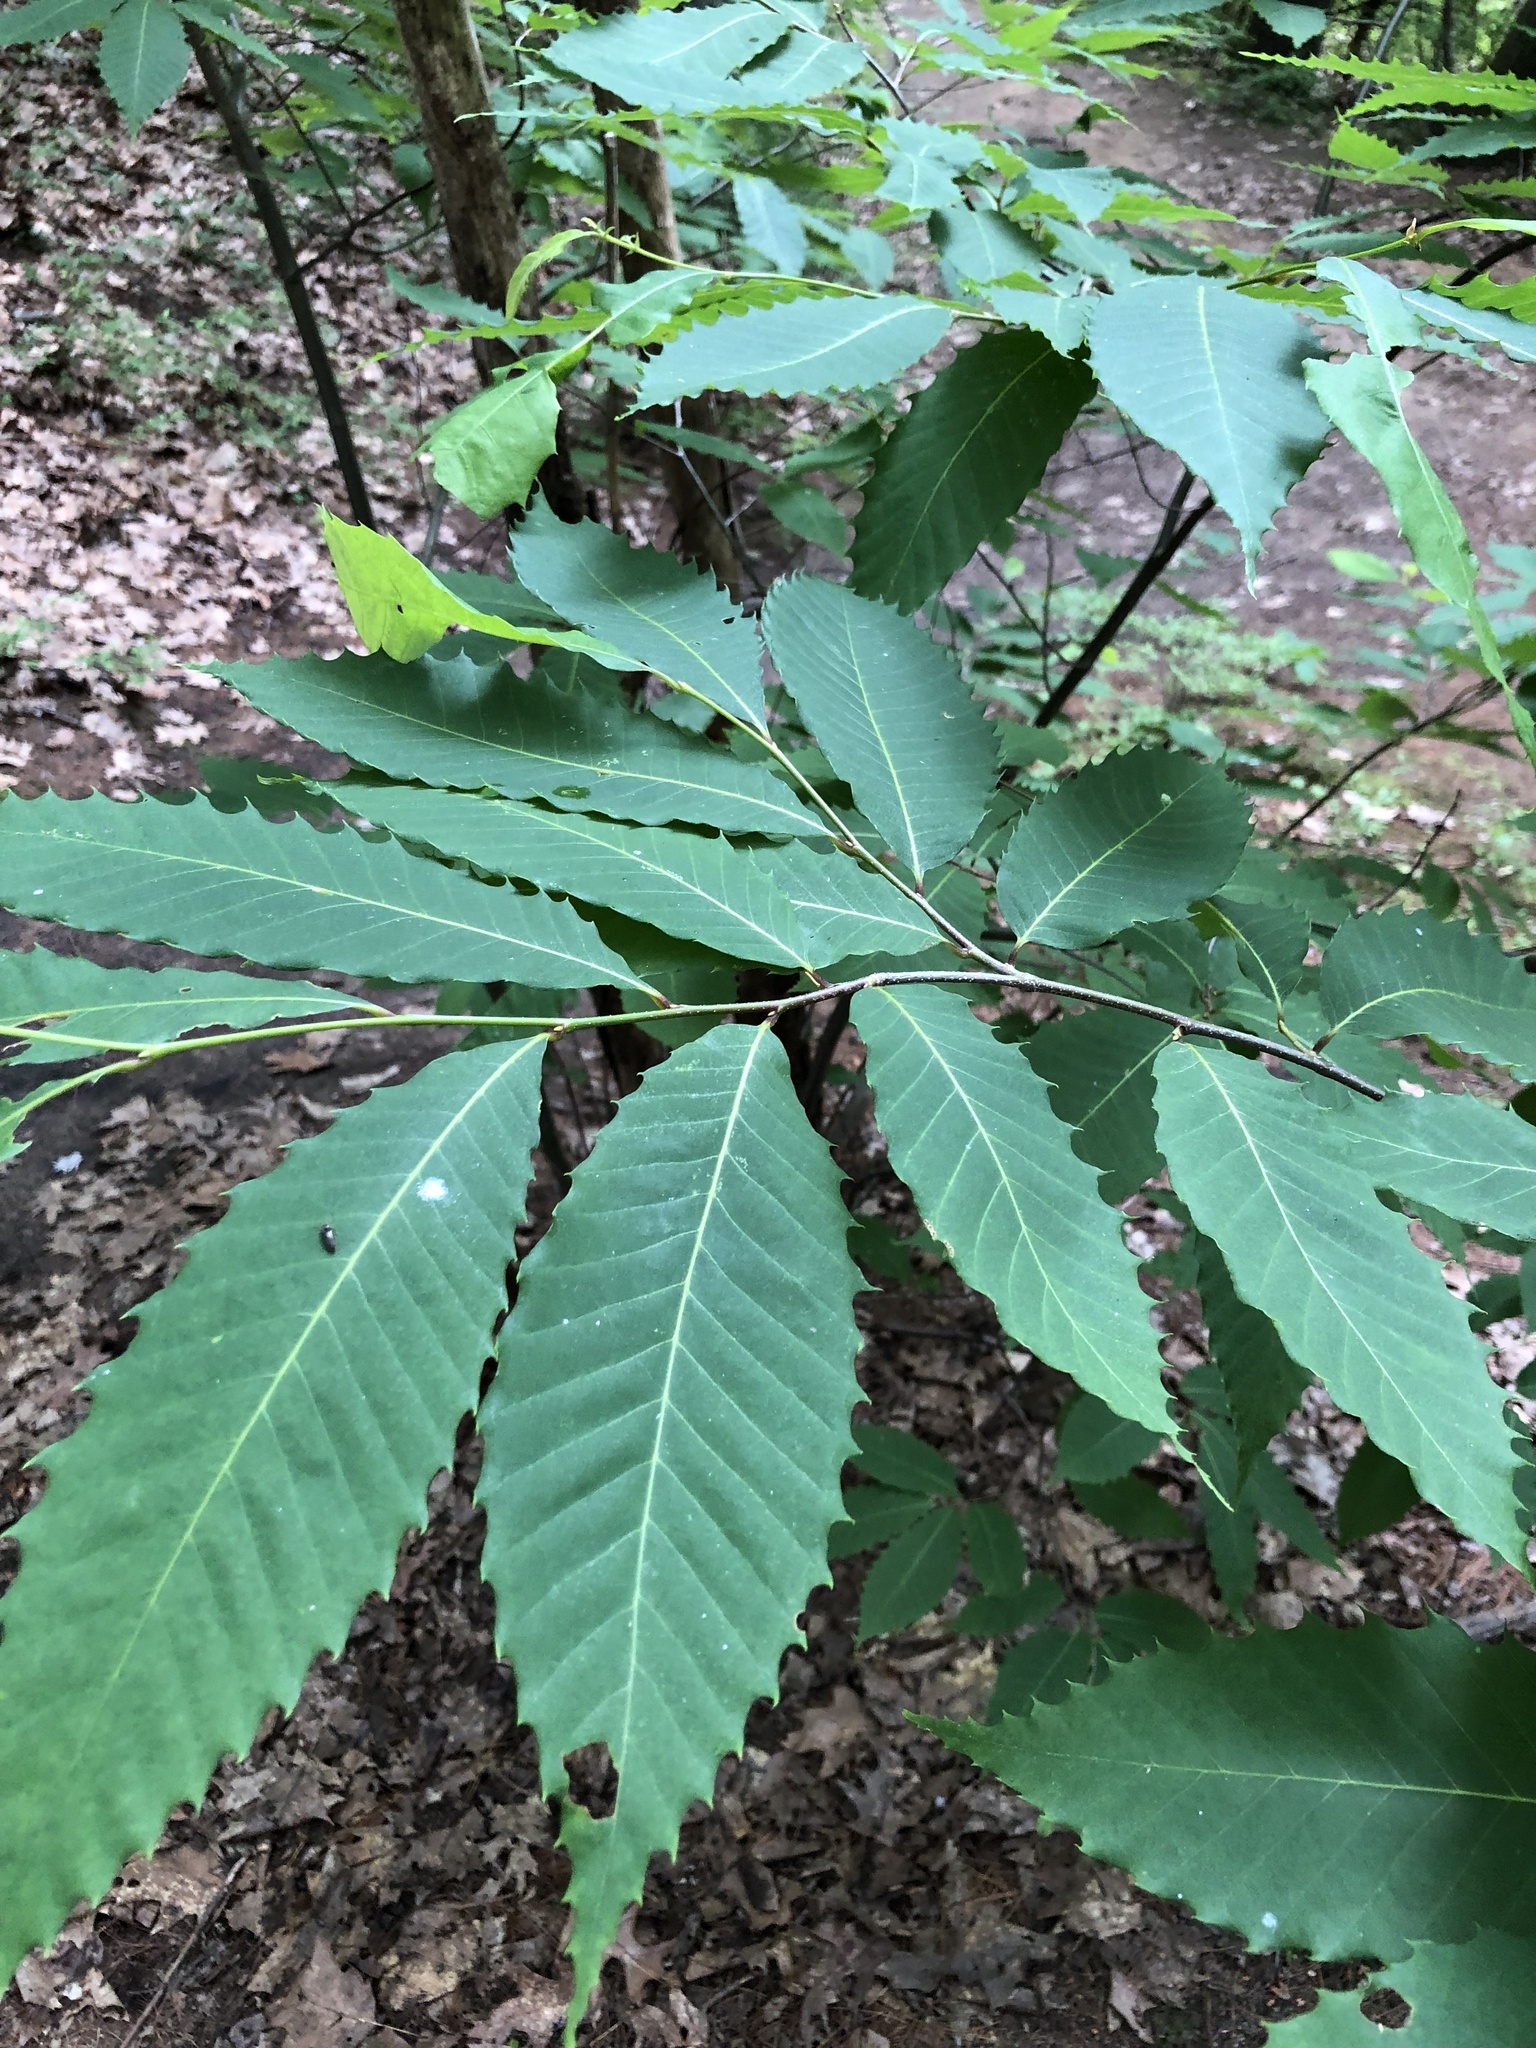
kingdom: Plantae
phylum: Tracheophyta
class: Magnoliopsida
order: Fagales
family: Fagaceae
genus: Castanea
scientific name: Castanea dentata
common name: American chestnut
